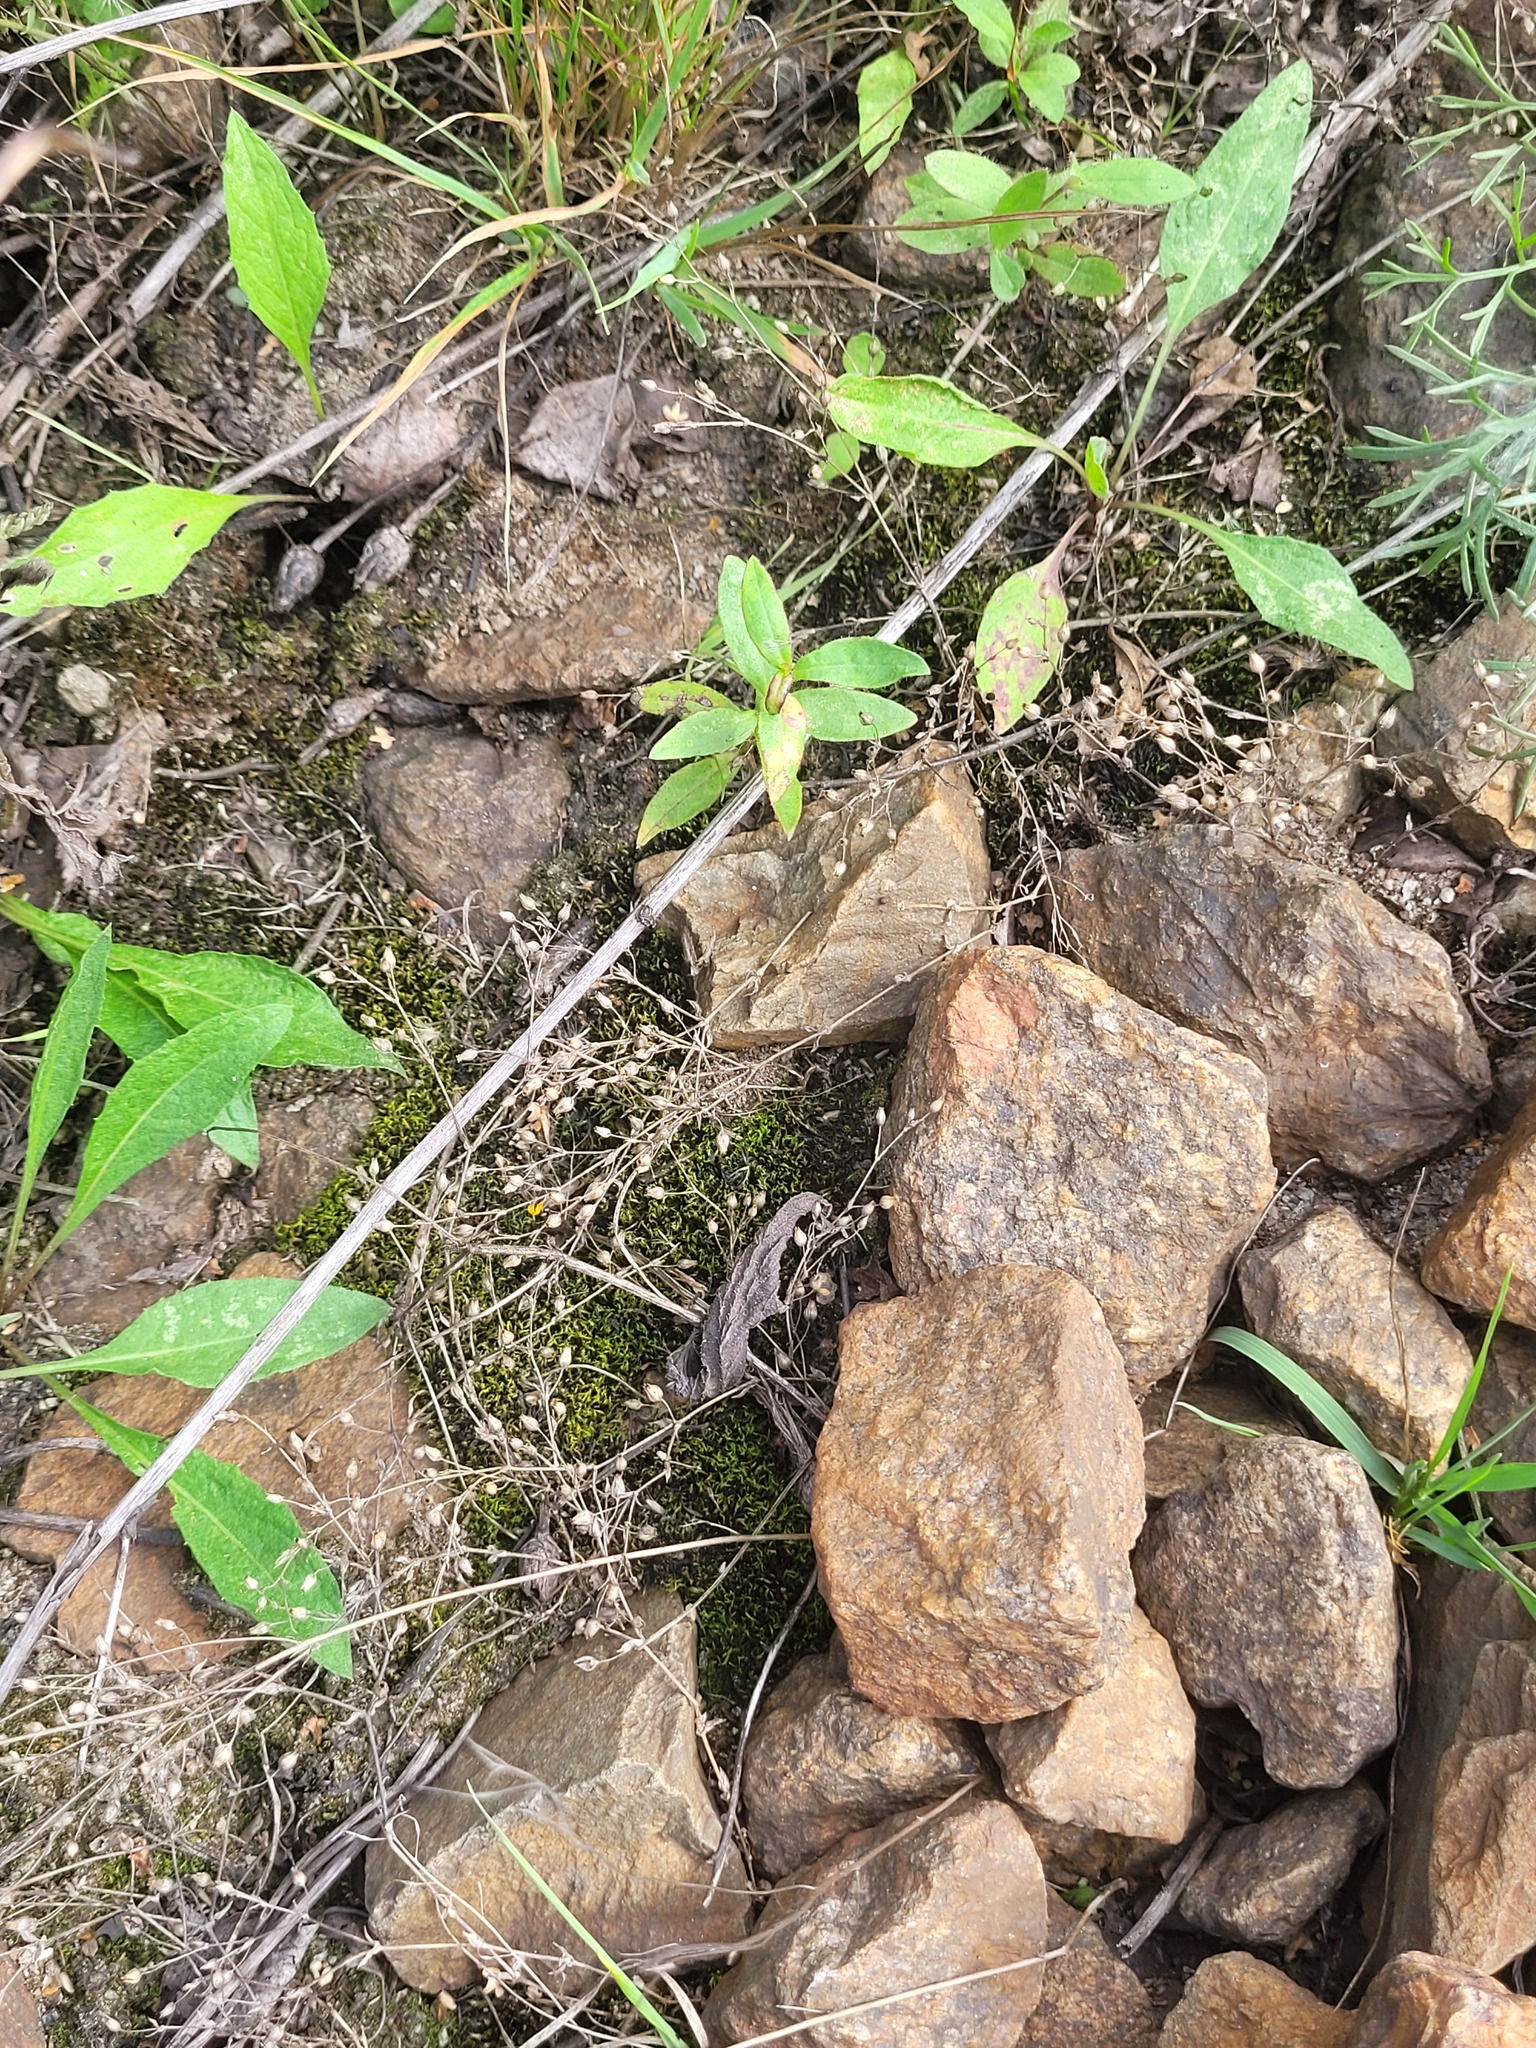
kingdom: Plantae
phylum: Tracheophyta
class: Magnoliopsida
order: Caryophyllales
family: Caryophyllaceae
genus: Arenaria
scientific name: Arenaria serpyllifolia
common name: Thyme-leaved sandwort
